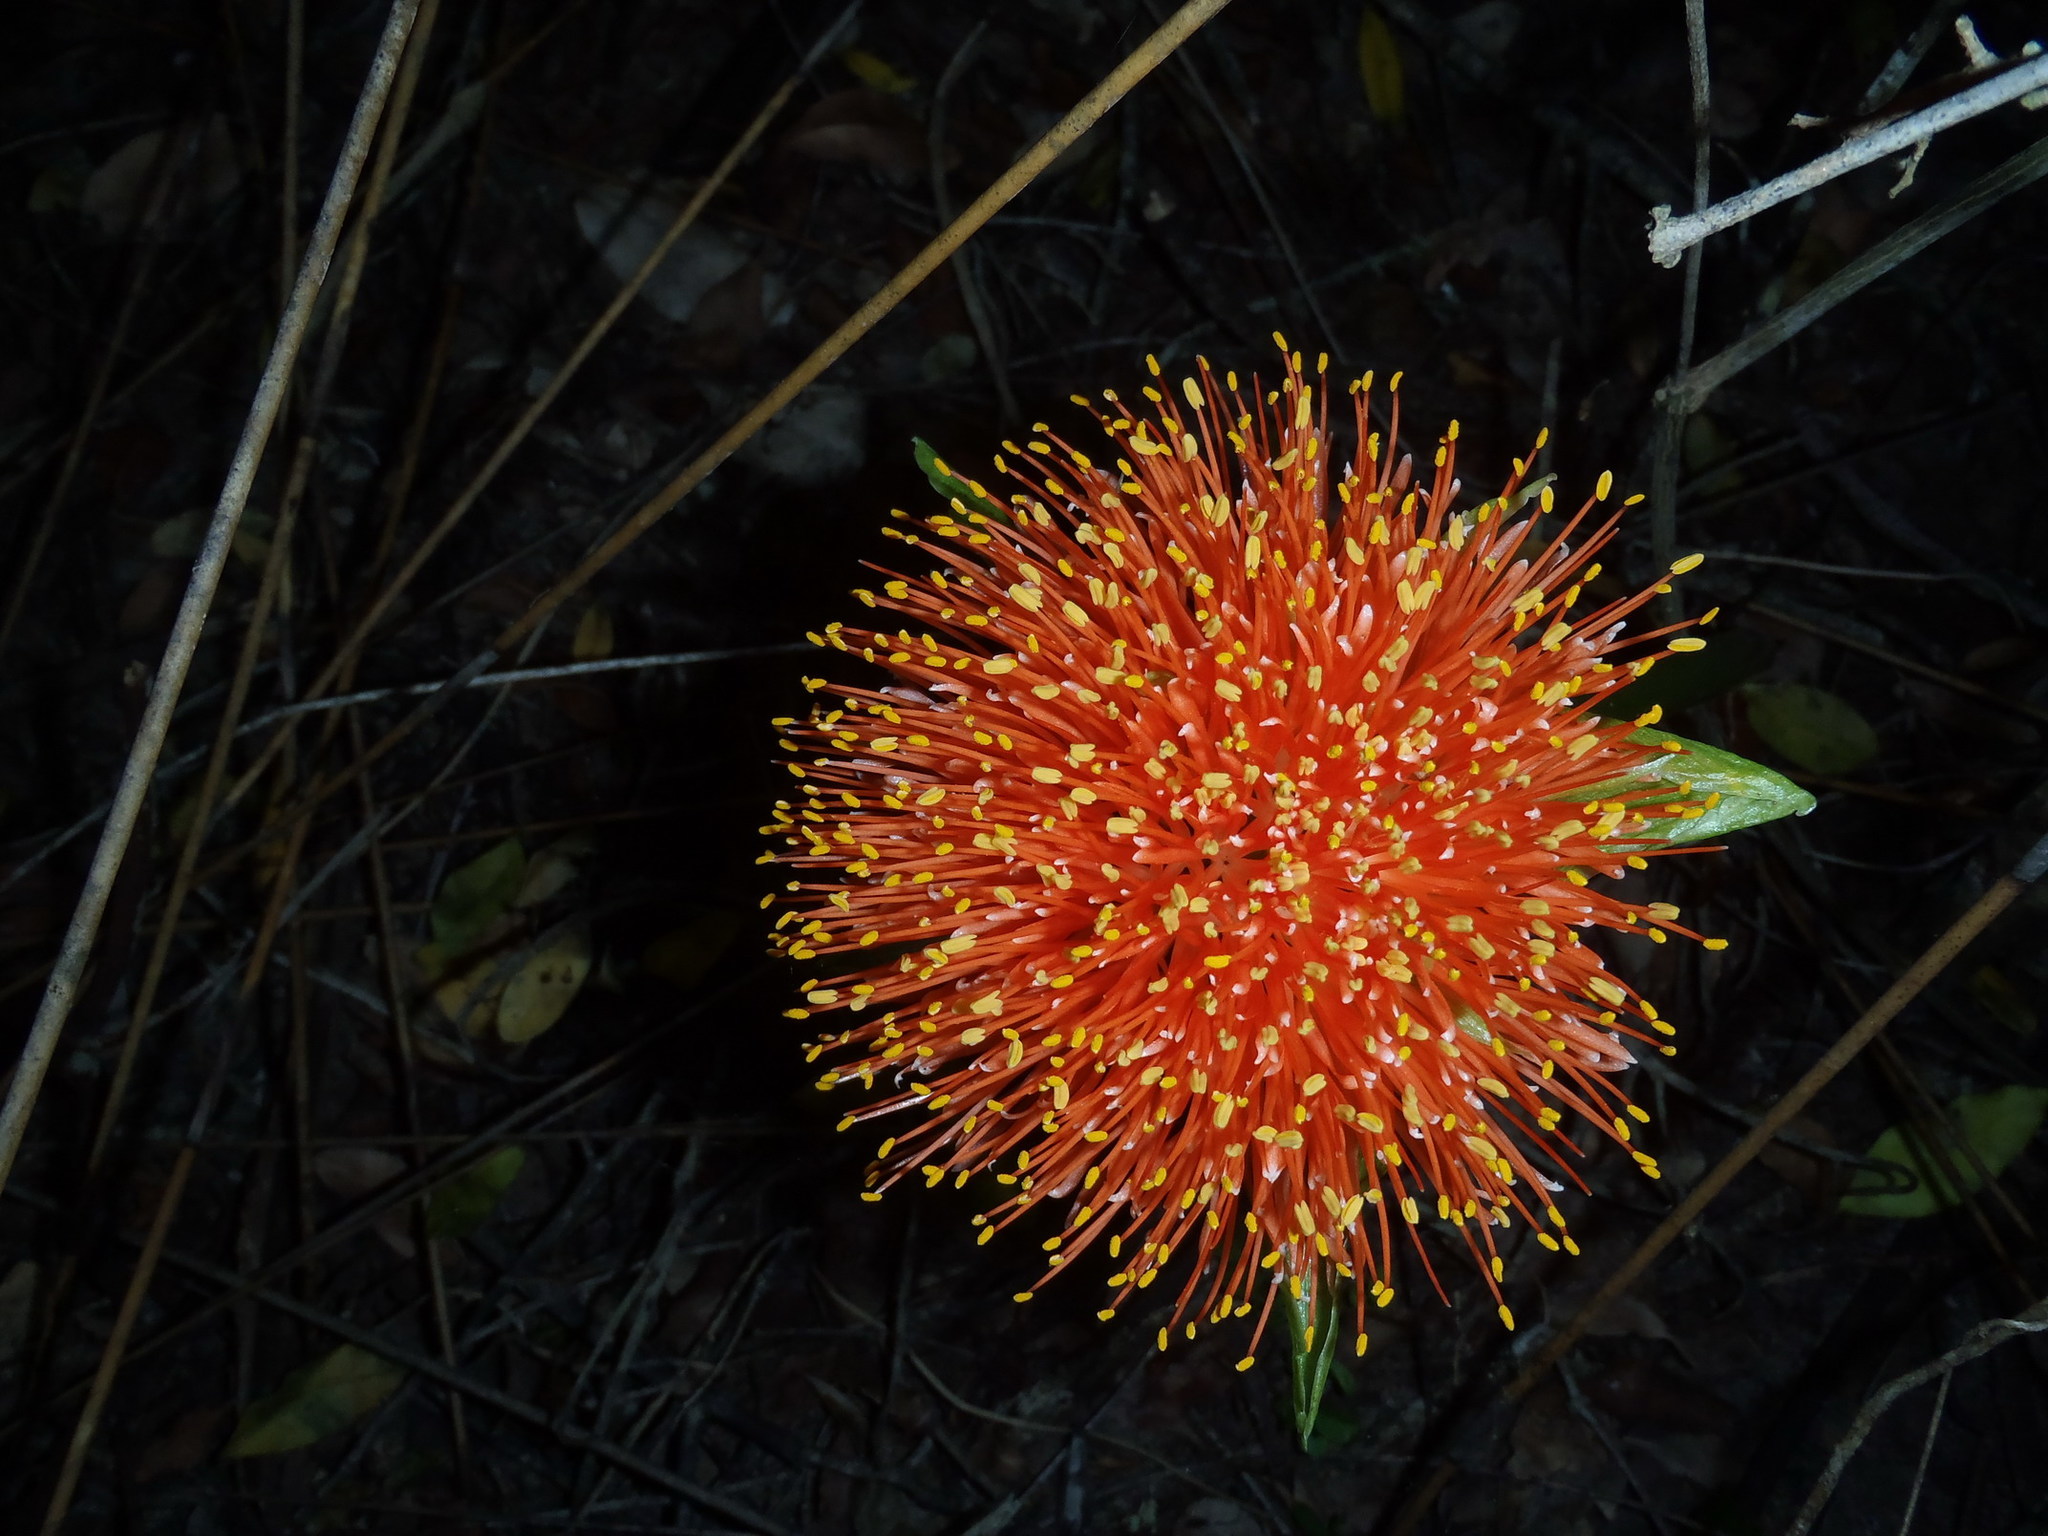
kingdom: Plantae
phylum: Tracheophyta
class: Liliopsida
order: Asparagales
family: Amaryllidaceae
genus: Scadoxus
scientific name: Scadoxus puniceus
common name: Royal-paintbrush
